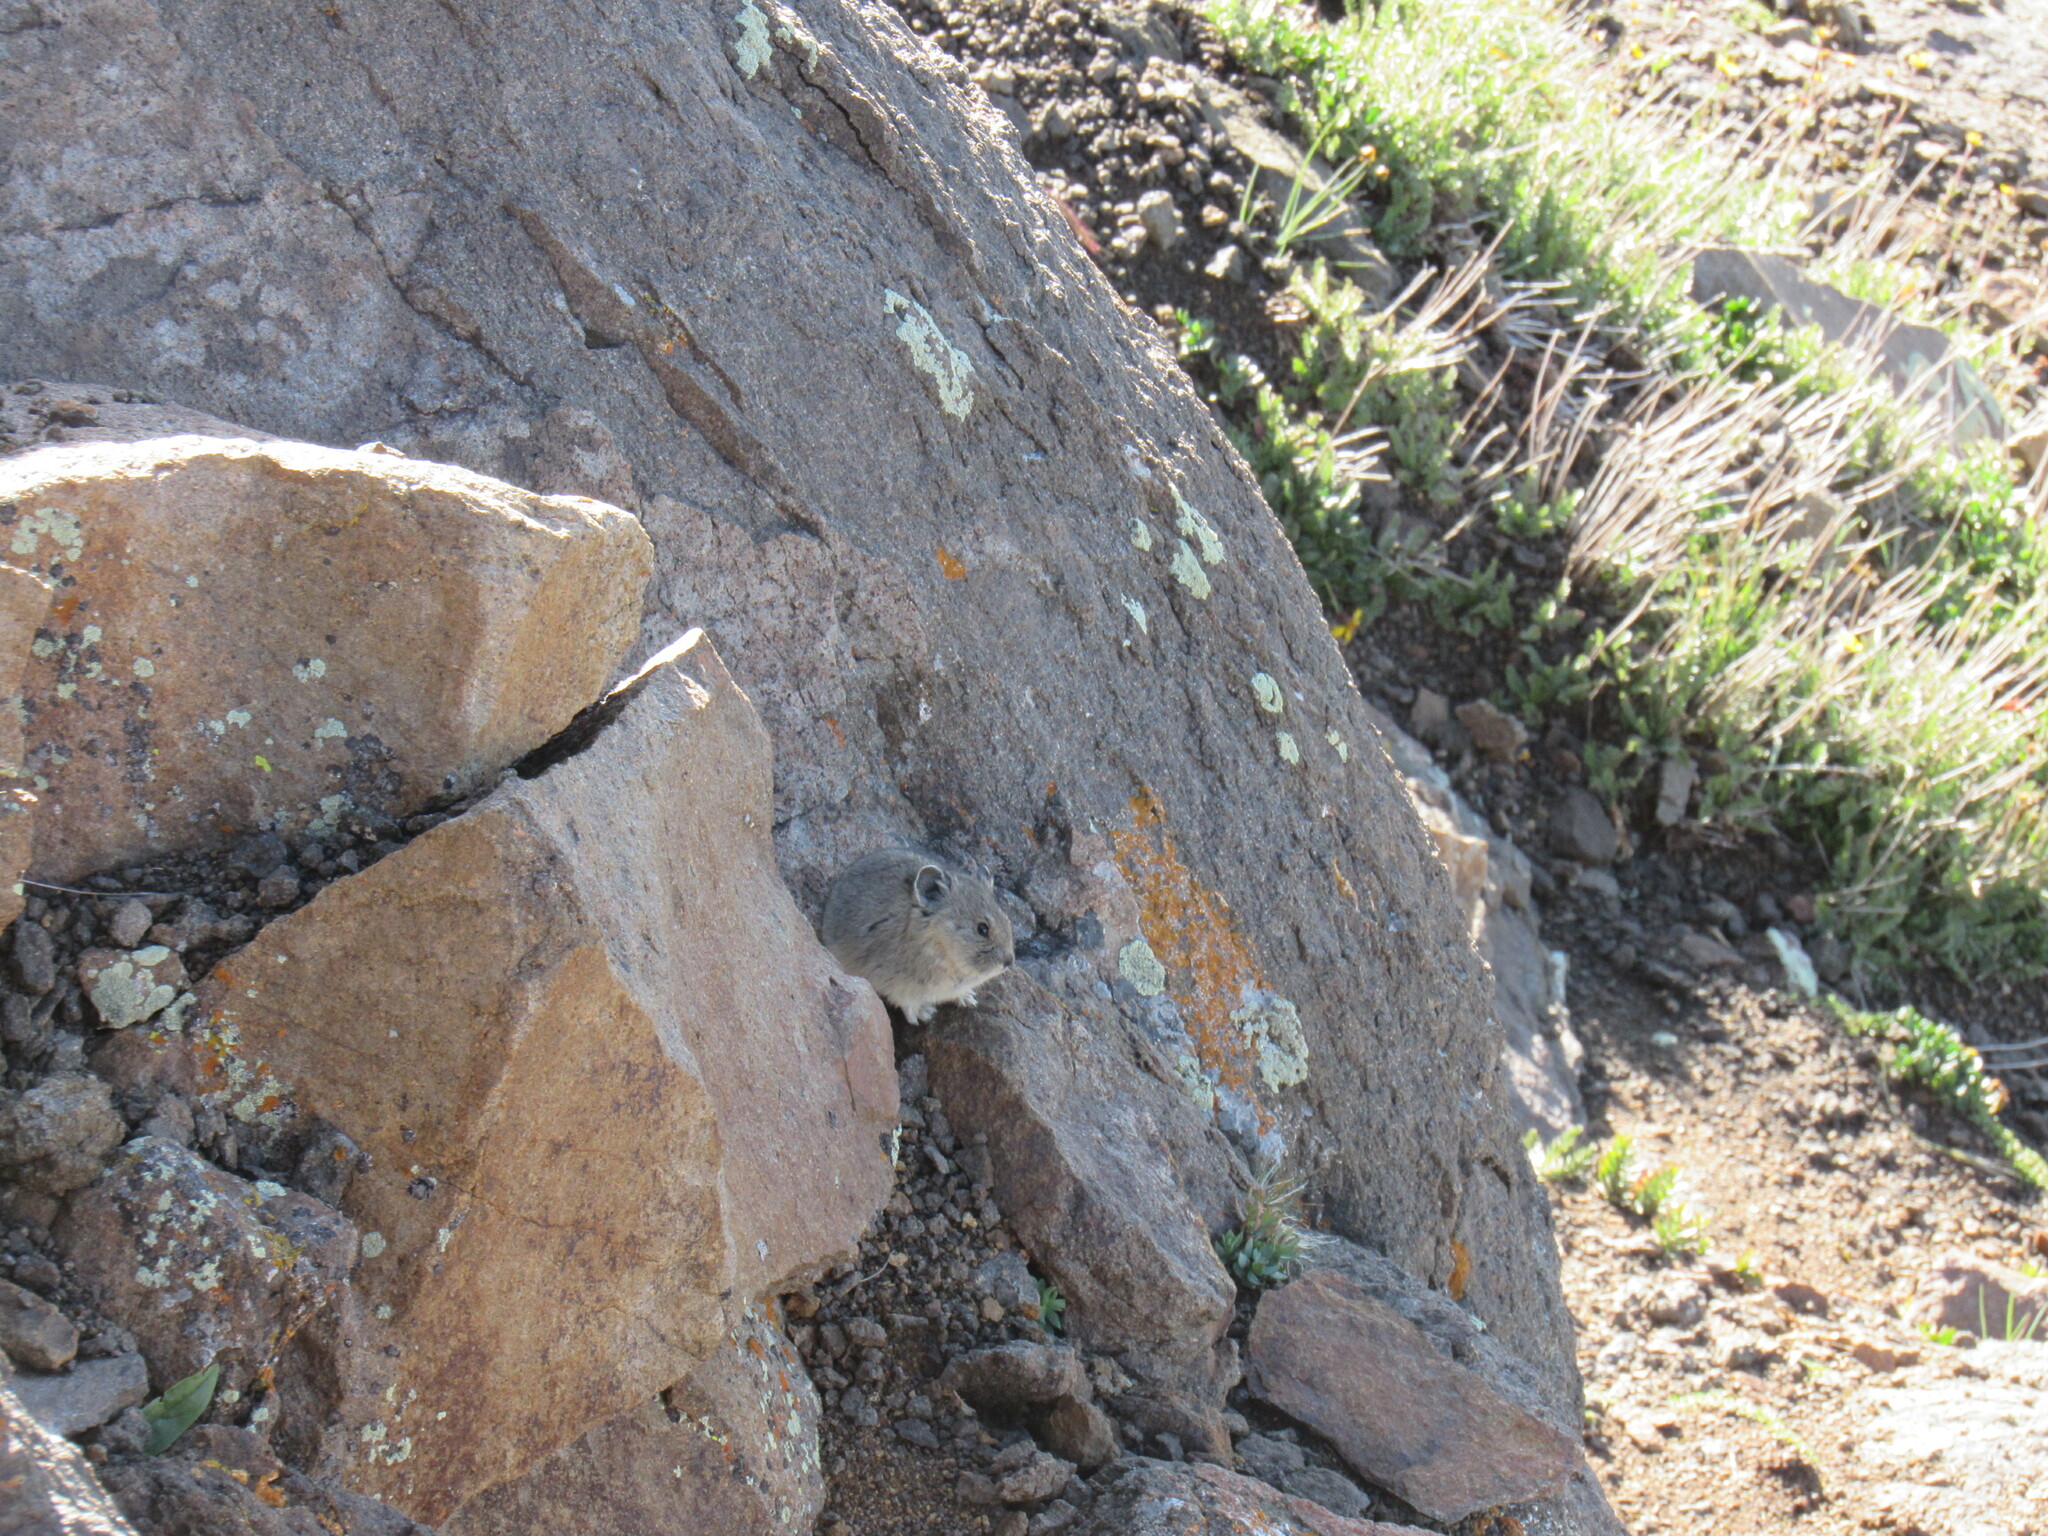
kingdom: Animalia
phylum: Chordata
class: Mammalia
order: Lagomorpha
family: Ochotonidae
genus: Ochotona
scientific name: Ochotona princeps
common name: American pika
